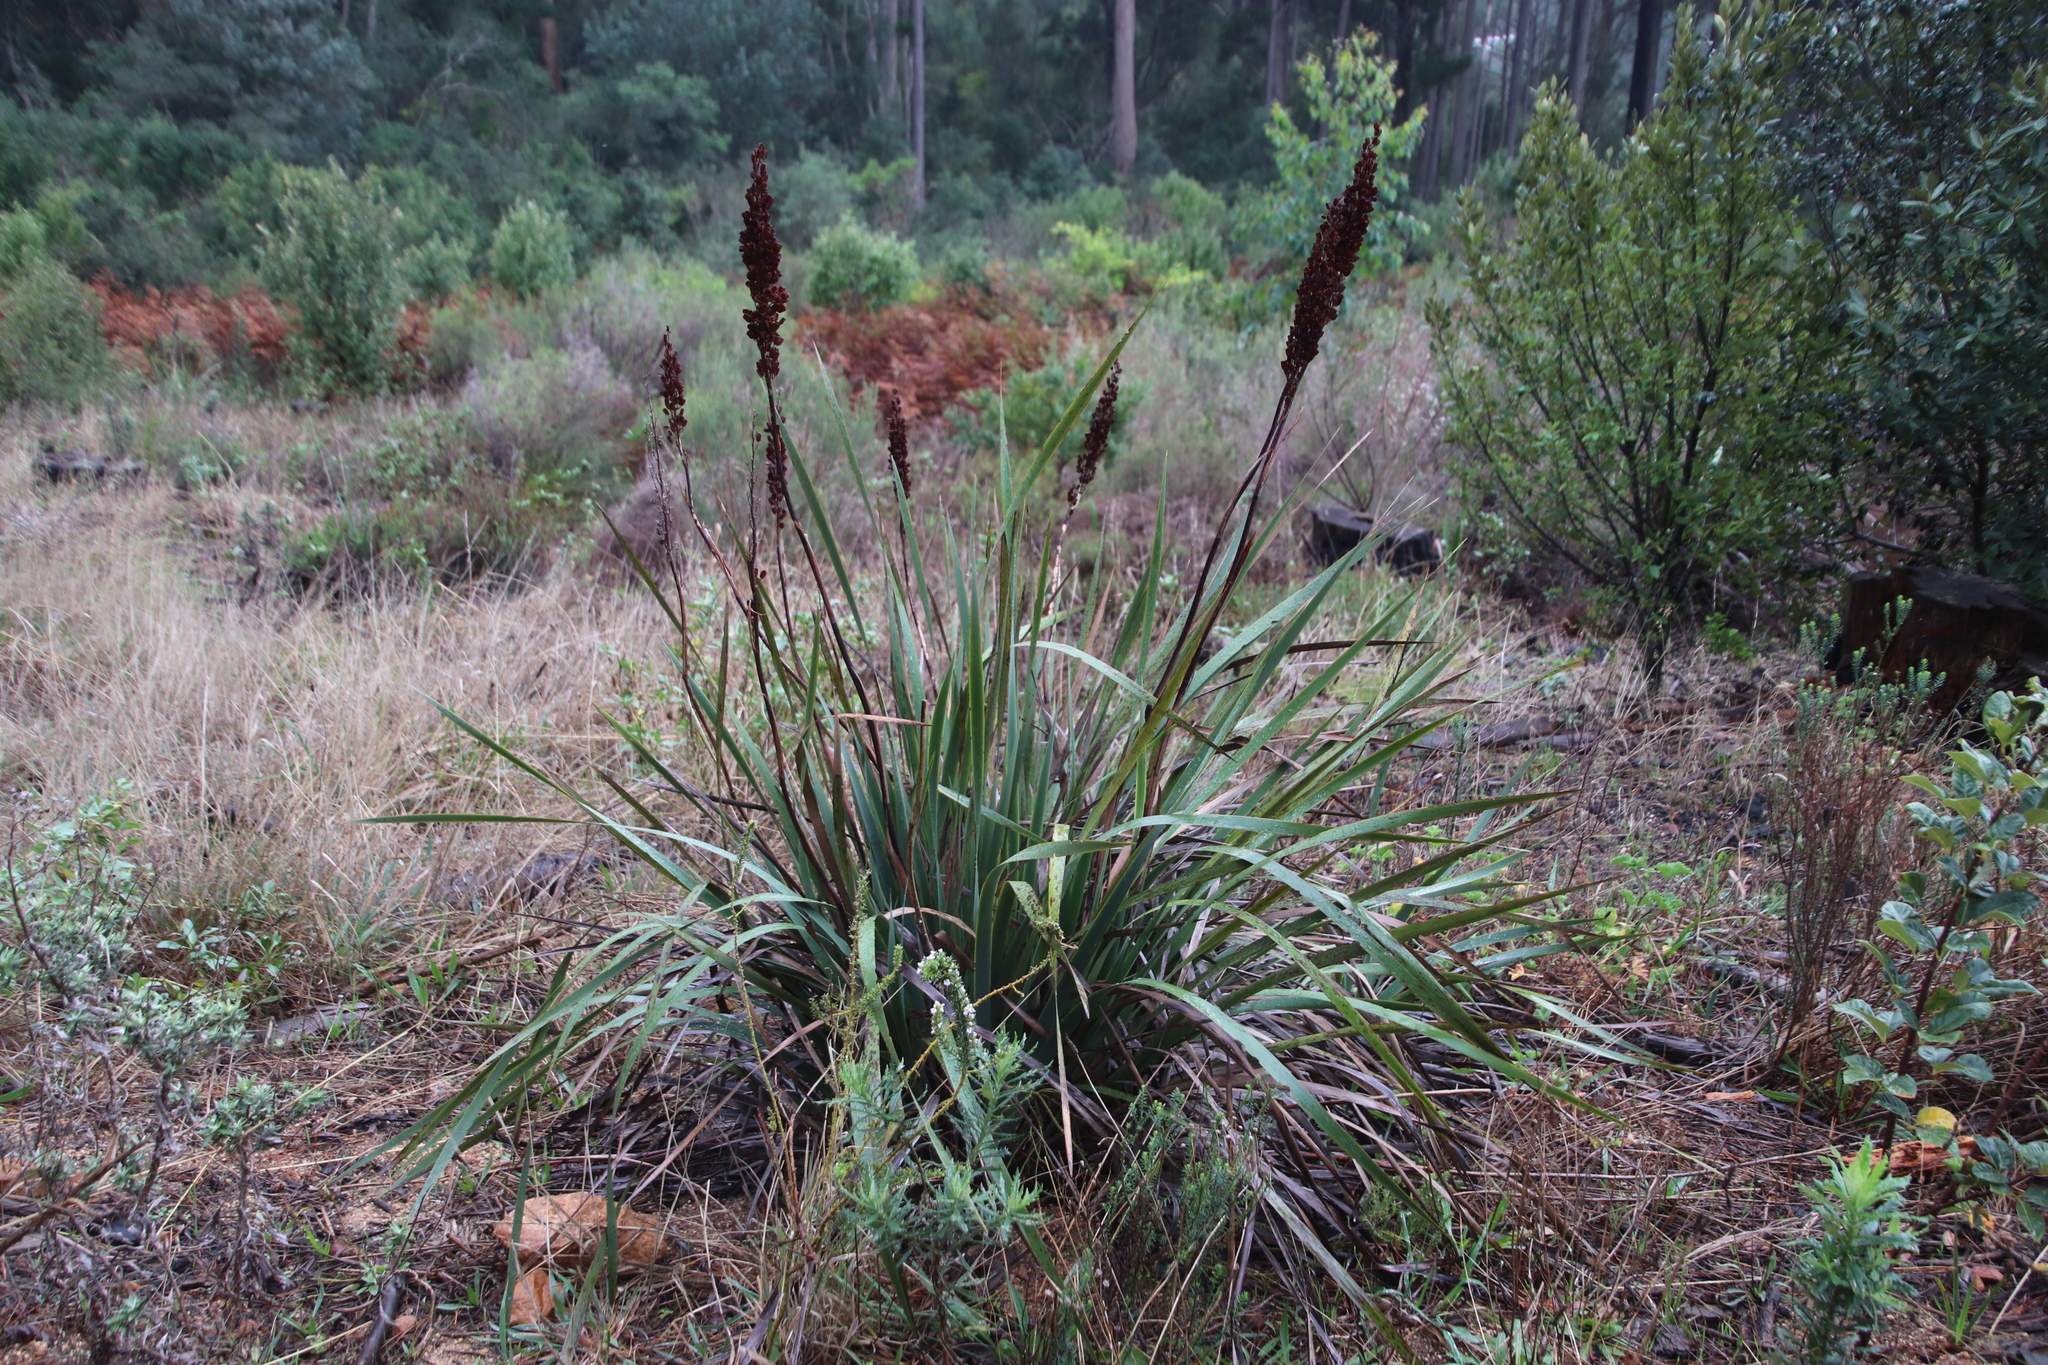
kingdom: Plantae
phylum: Tracheophyta
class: Liliopsida
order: Asparagales
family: Iridaceae
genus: Aristea
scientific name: Aristea capitata
